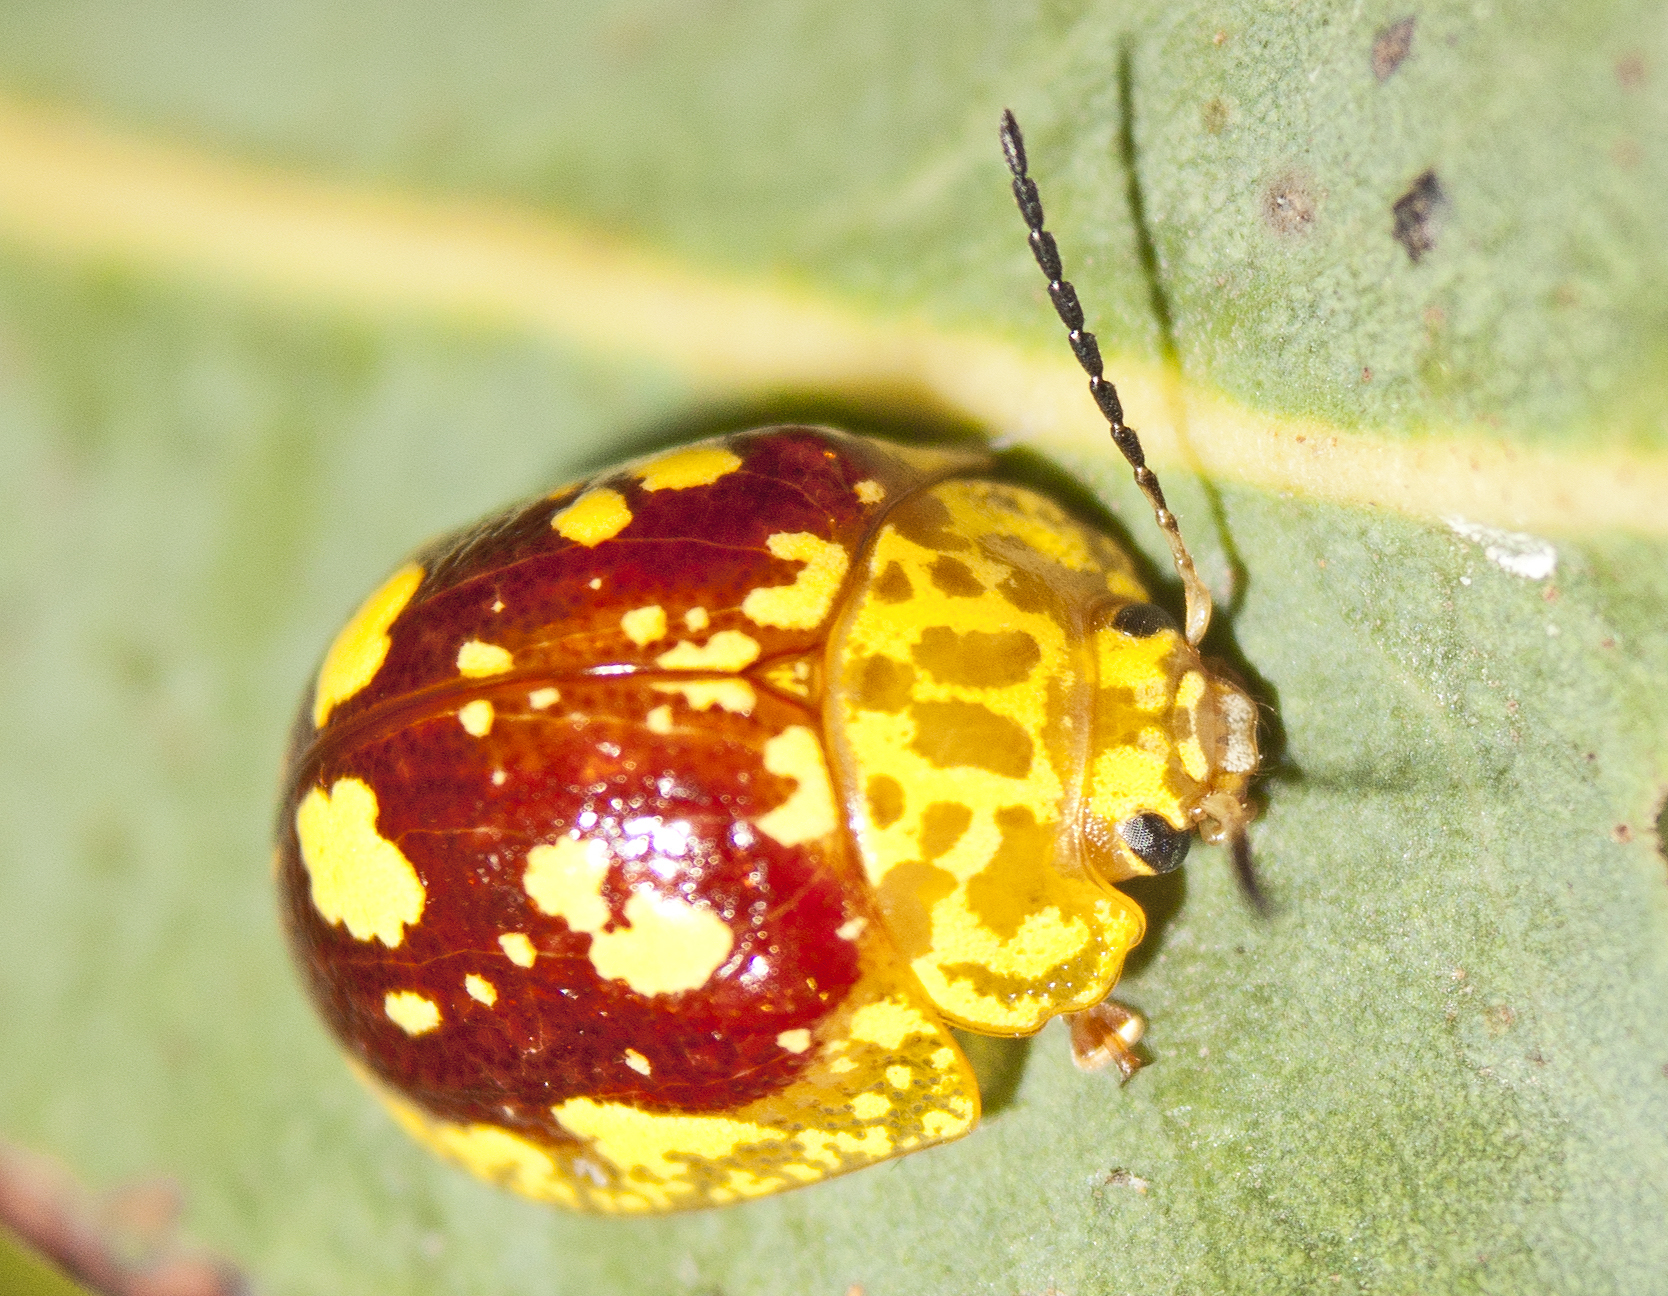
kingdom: Animalia
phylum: Arthropoda
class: Insecta
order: Coleoptera
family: Chrysomelidae
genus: Paropsis
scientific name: Paropsis maculata
